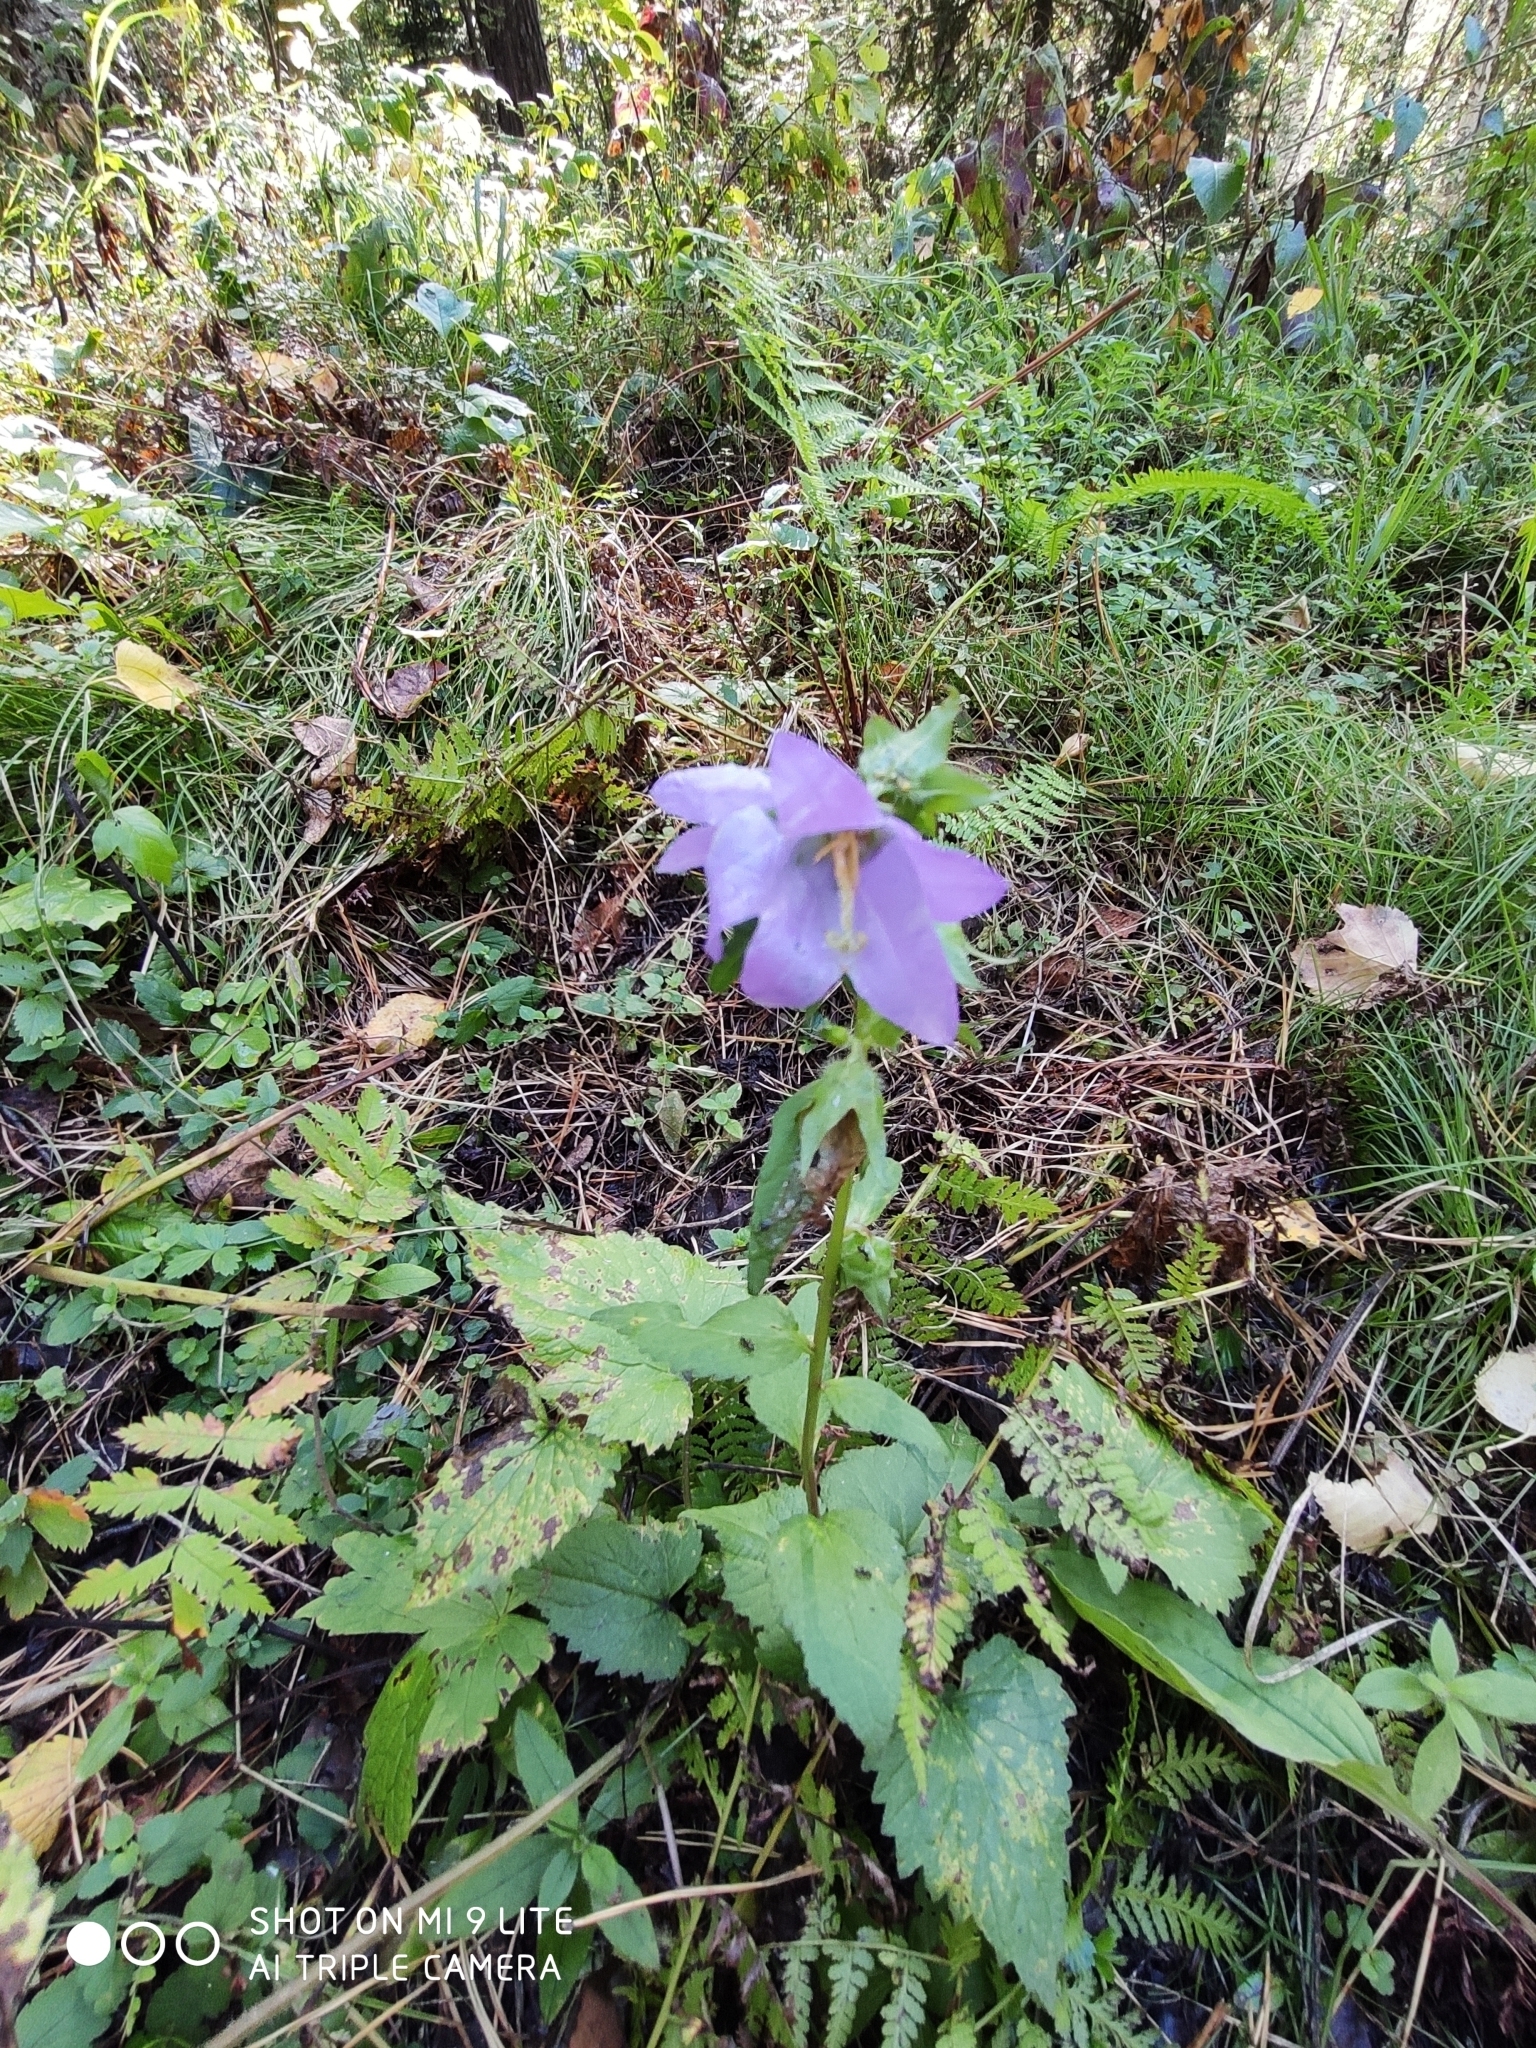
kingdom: Plantae
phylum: Tracheophyta
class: Magnoliopsida
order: Asterales
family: Campanulaceae
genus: Campanula
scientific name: Campanula trachelium
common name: Nettle-leaved bellflower
